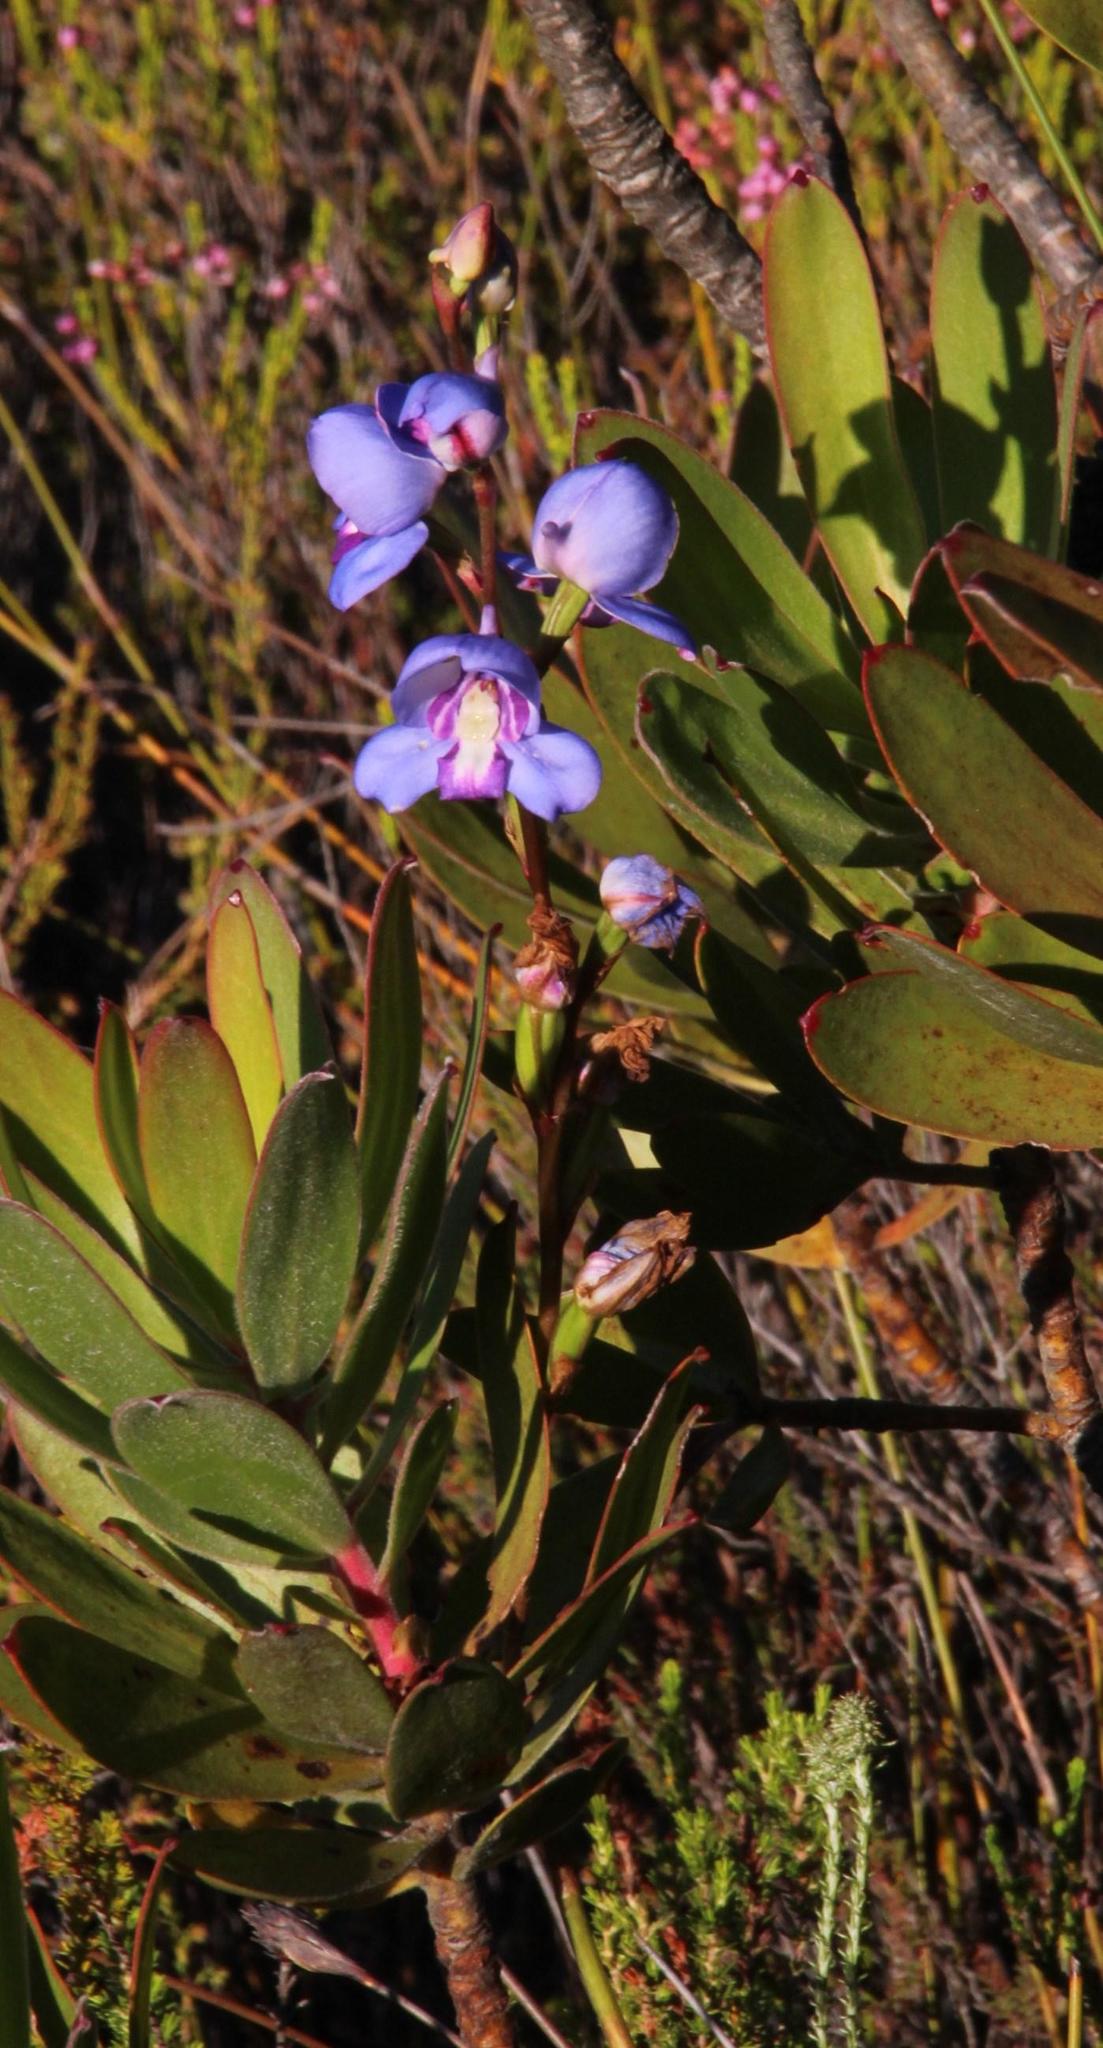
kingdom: Plantae
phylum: Tracheophyta
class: Liliopsida
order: Asparagales
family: Orchidaceae
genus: Disa
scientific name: Disa graminifolia
